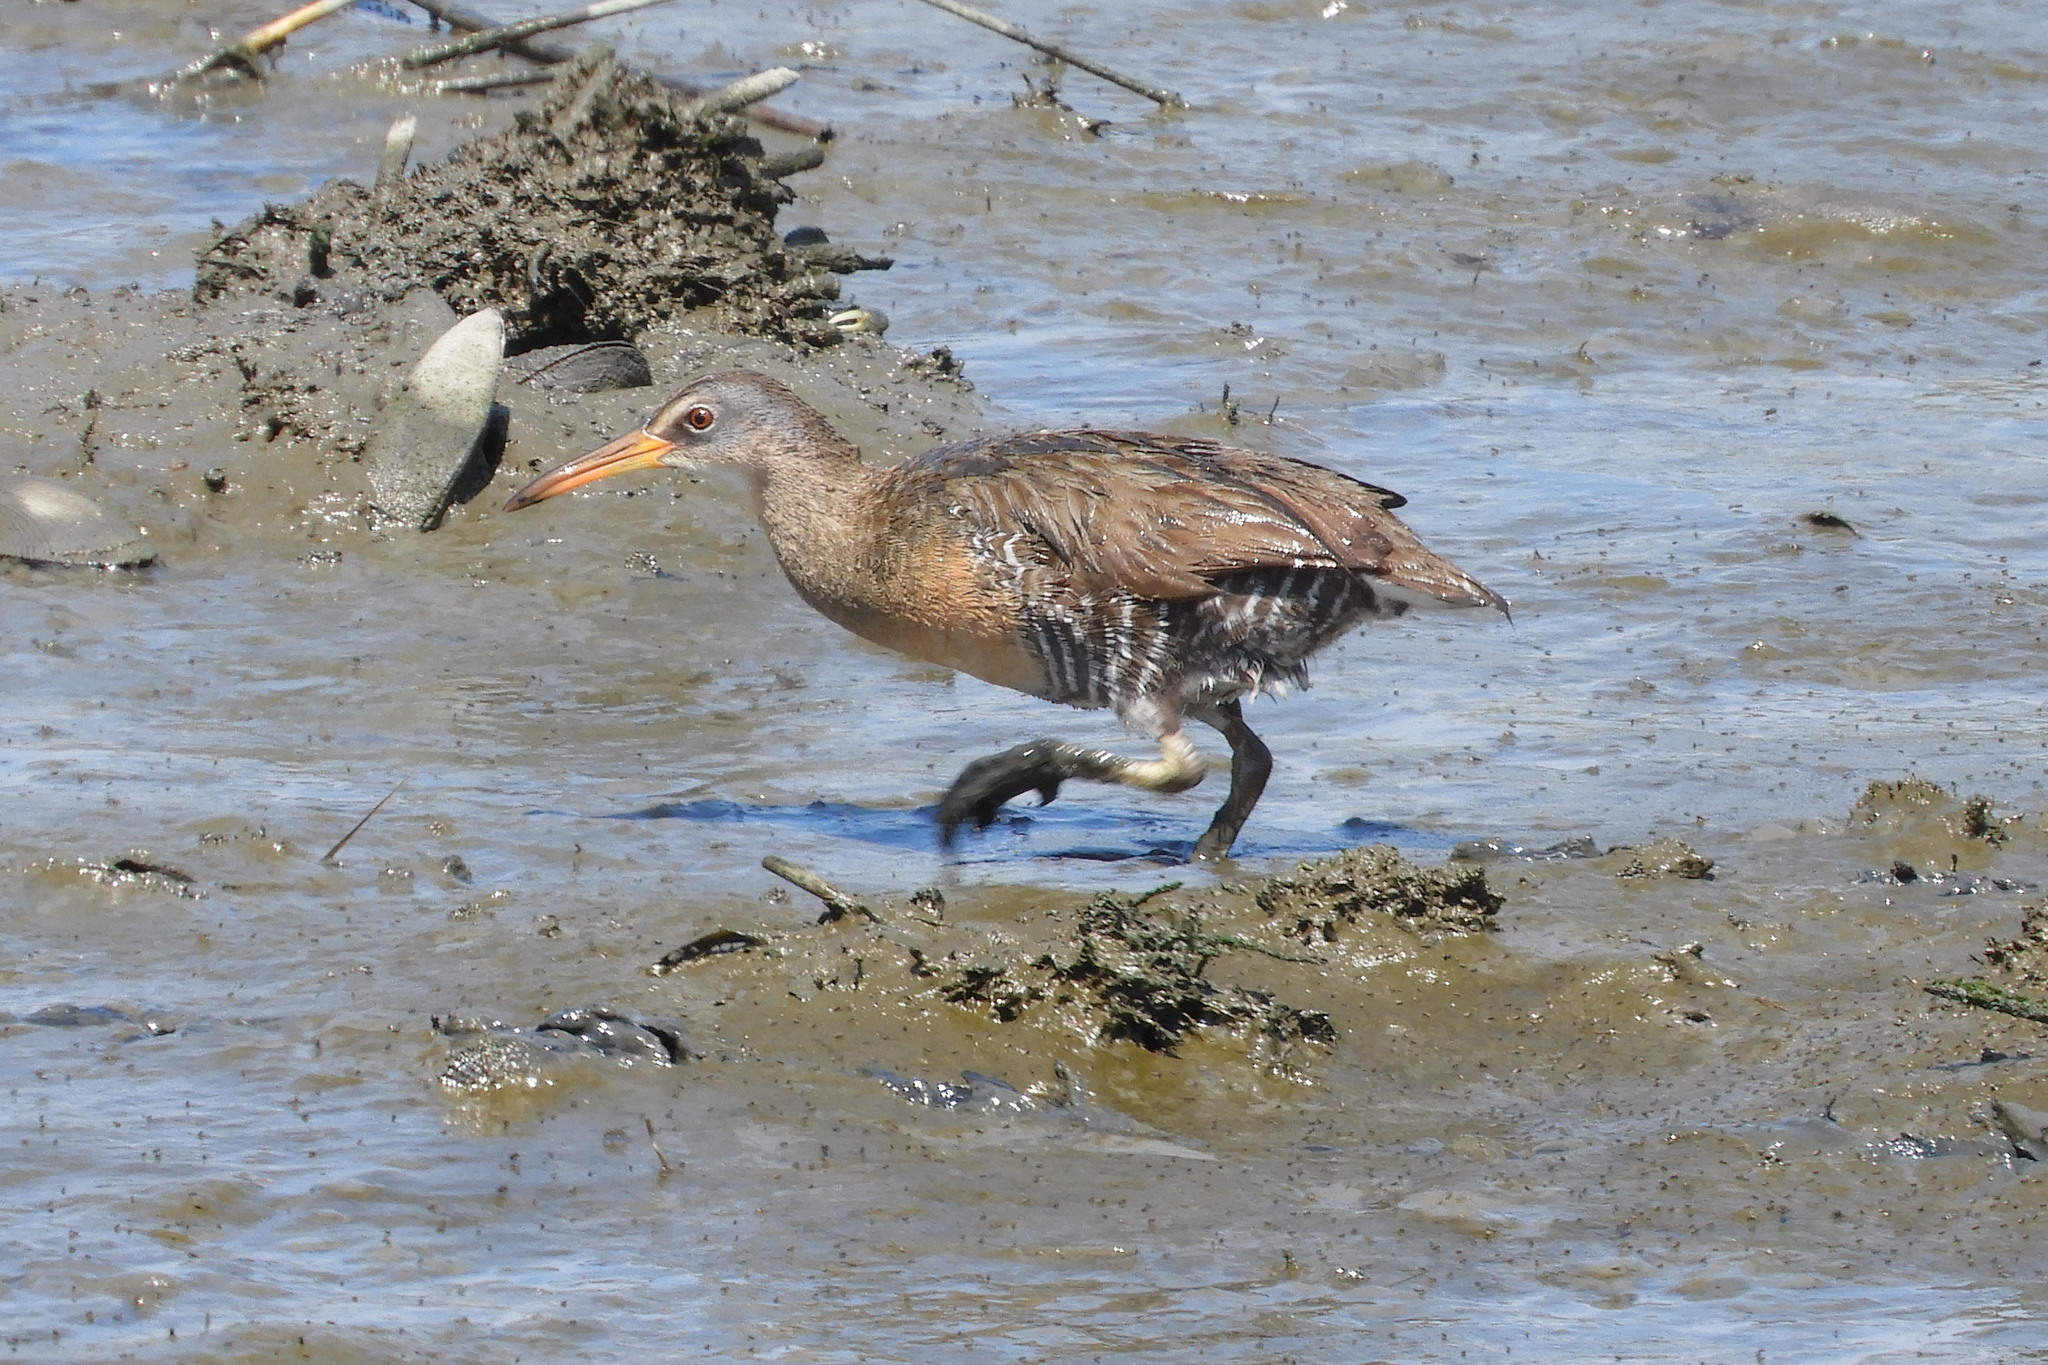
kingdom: Animalia
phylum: Chordata
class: Aves
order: Gruiformes
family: Rallidae
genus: Rallus
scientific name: Rallus crepitans
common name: Clapper rail
